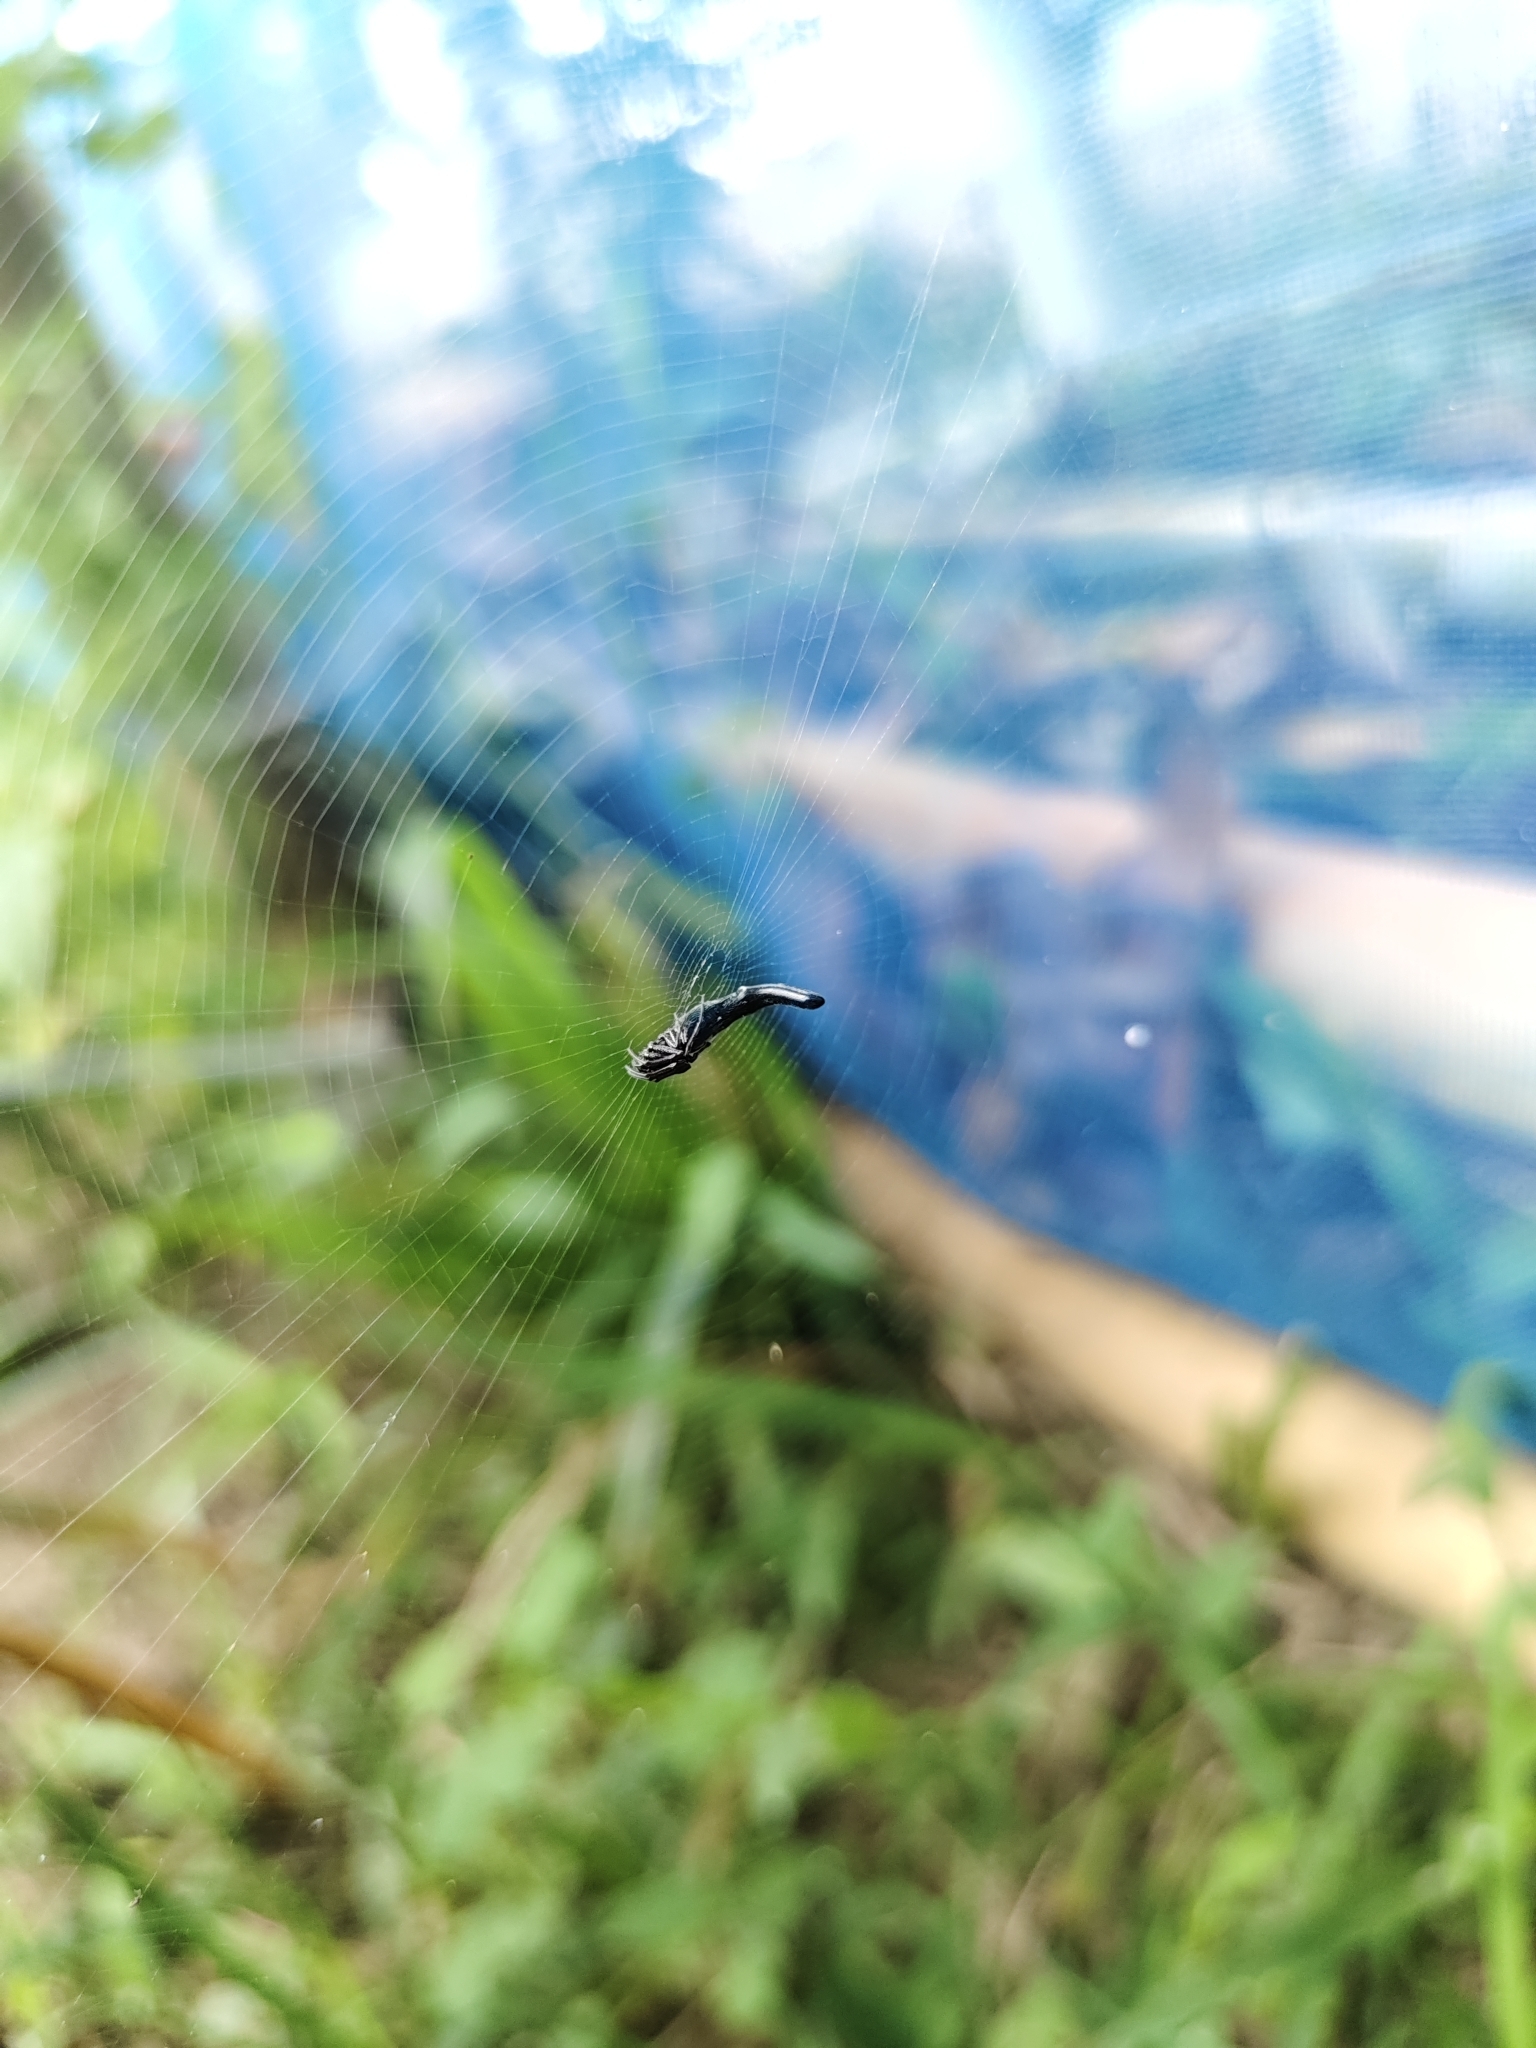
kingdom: Animalia
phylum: Arthropoda
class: Arachnida
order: Araneae
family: Araneidae
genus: Cyclosa
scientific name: Cyclosa bifida
